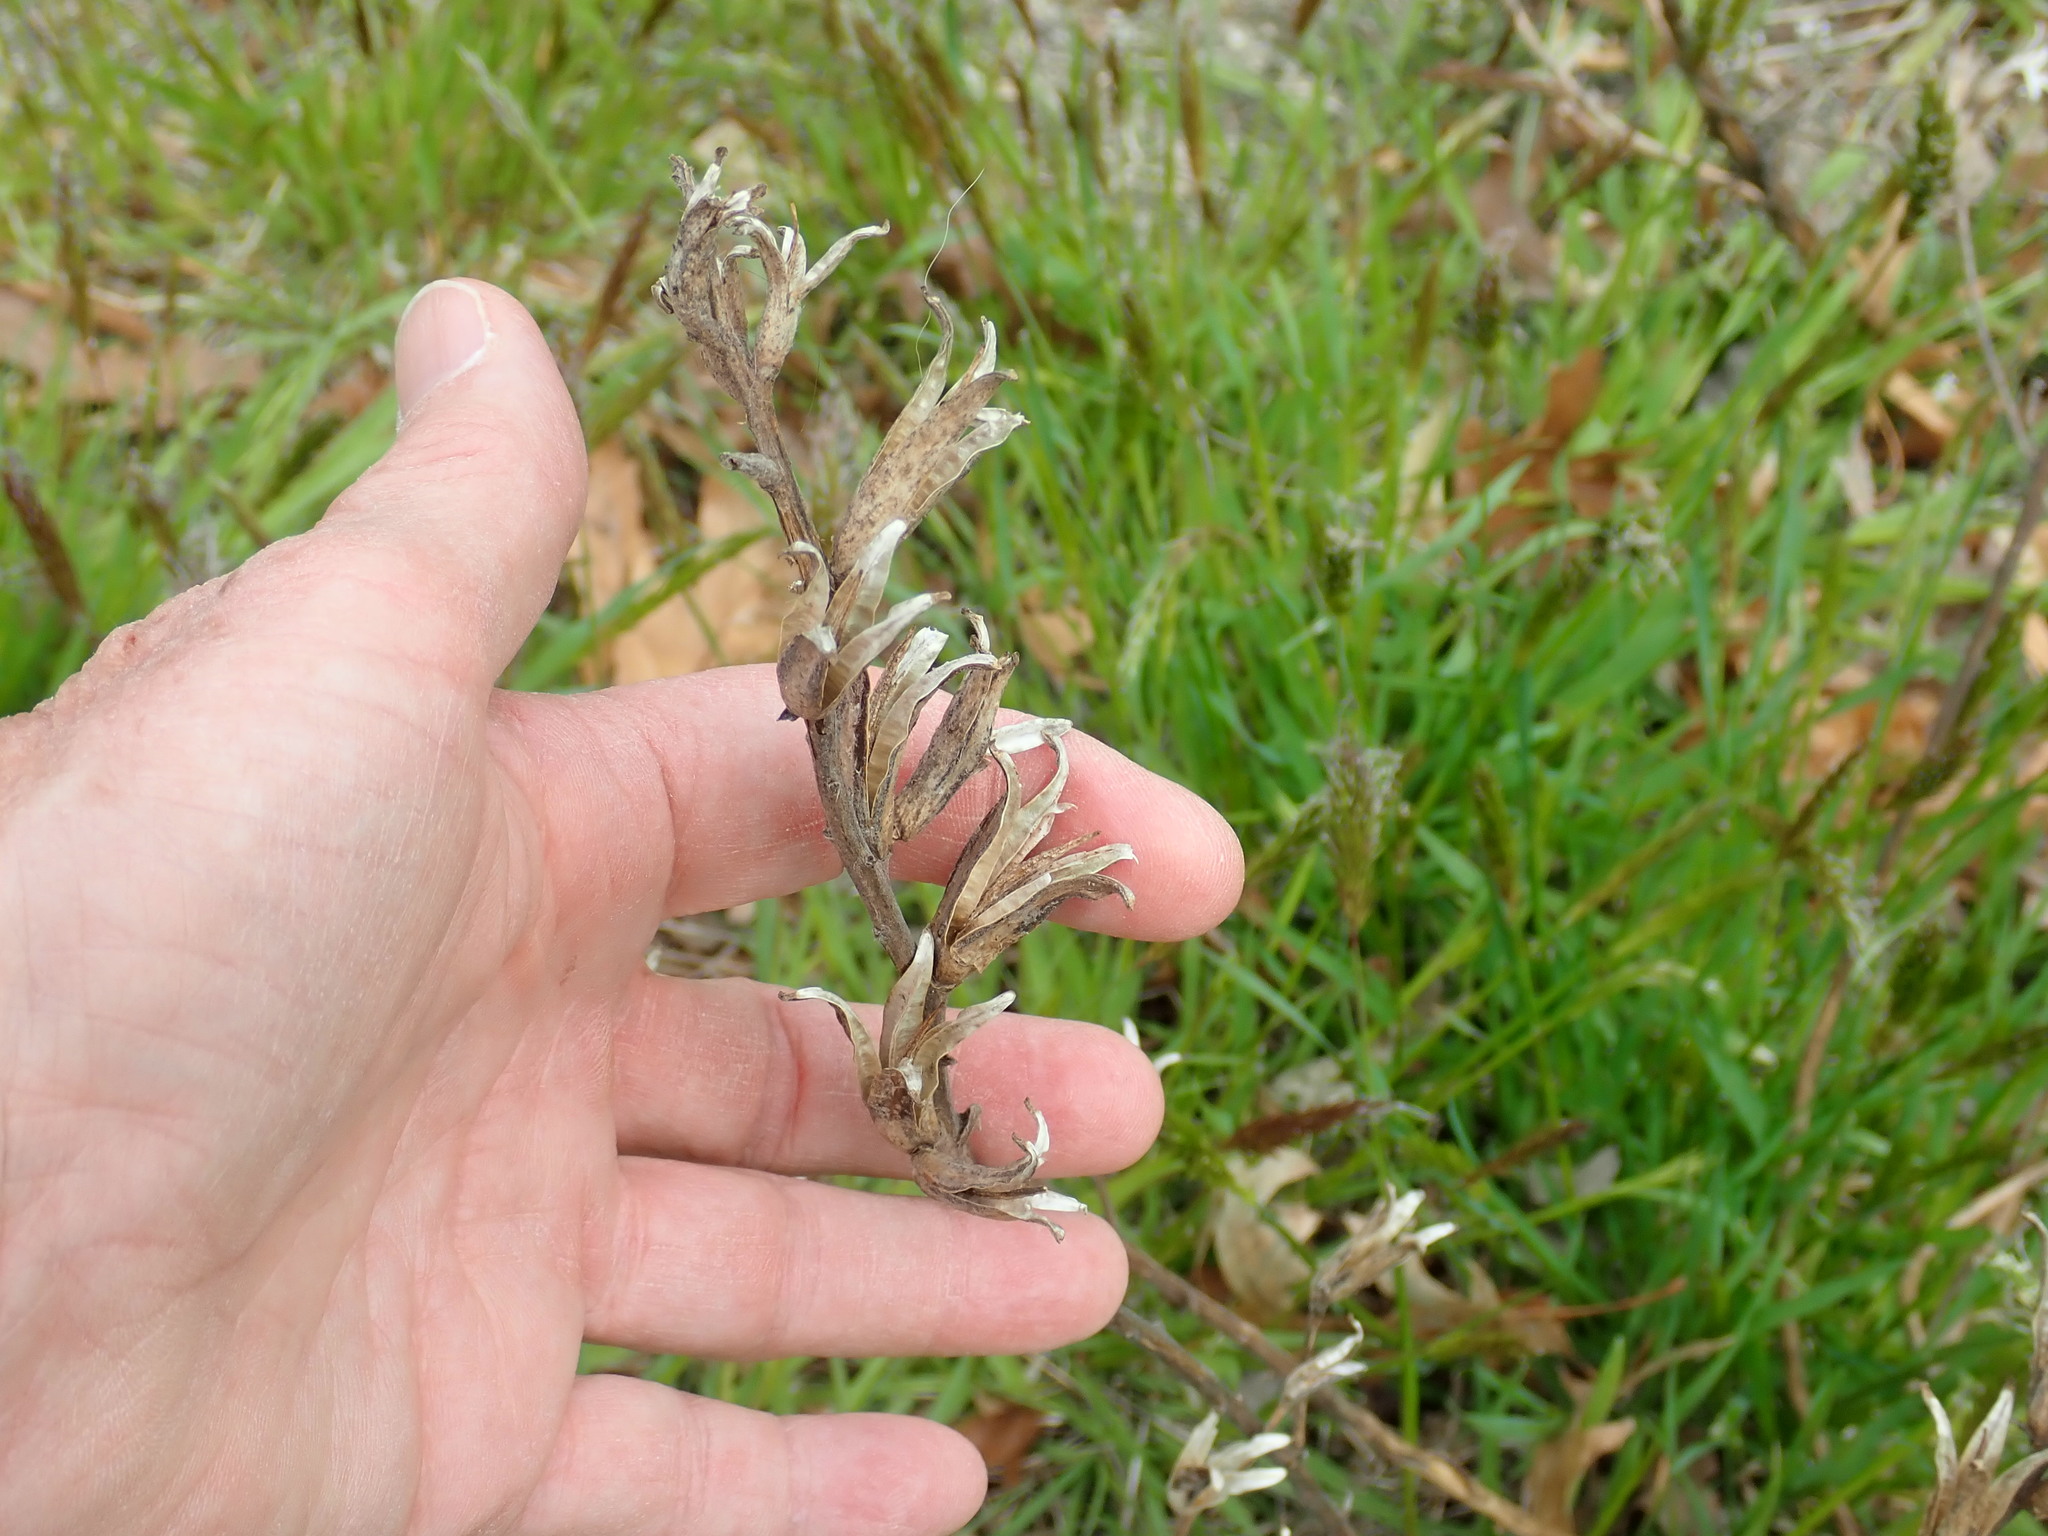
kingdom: Plantae
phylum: Tracheophyta
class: Magnoliopsida
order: Myrtales
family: Onagraceae
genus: Oenothera
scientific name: Oenothera biennis
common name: Common evening-primrose
